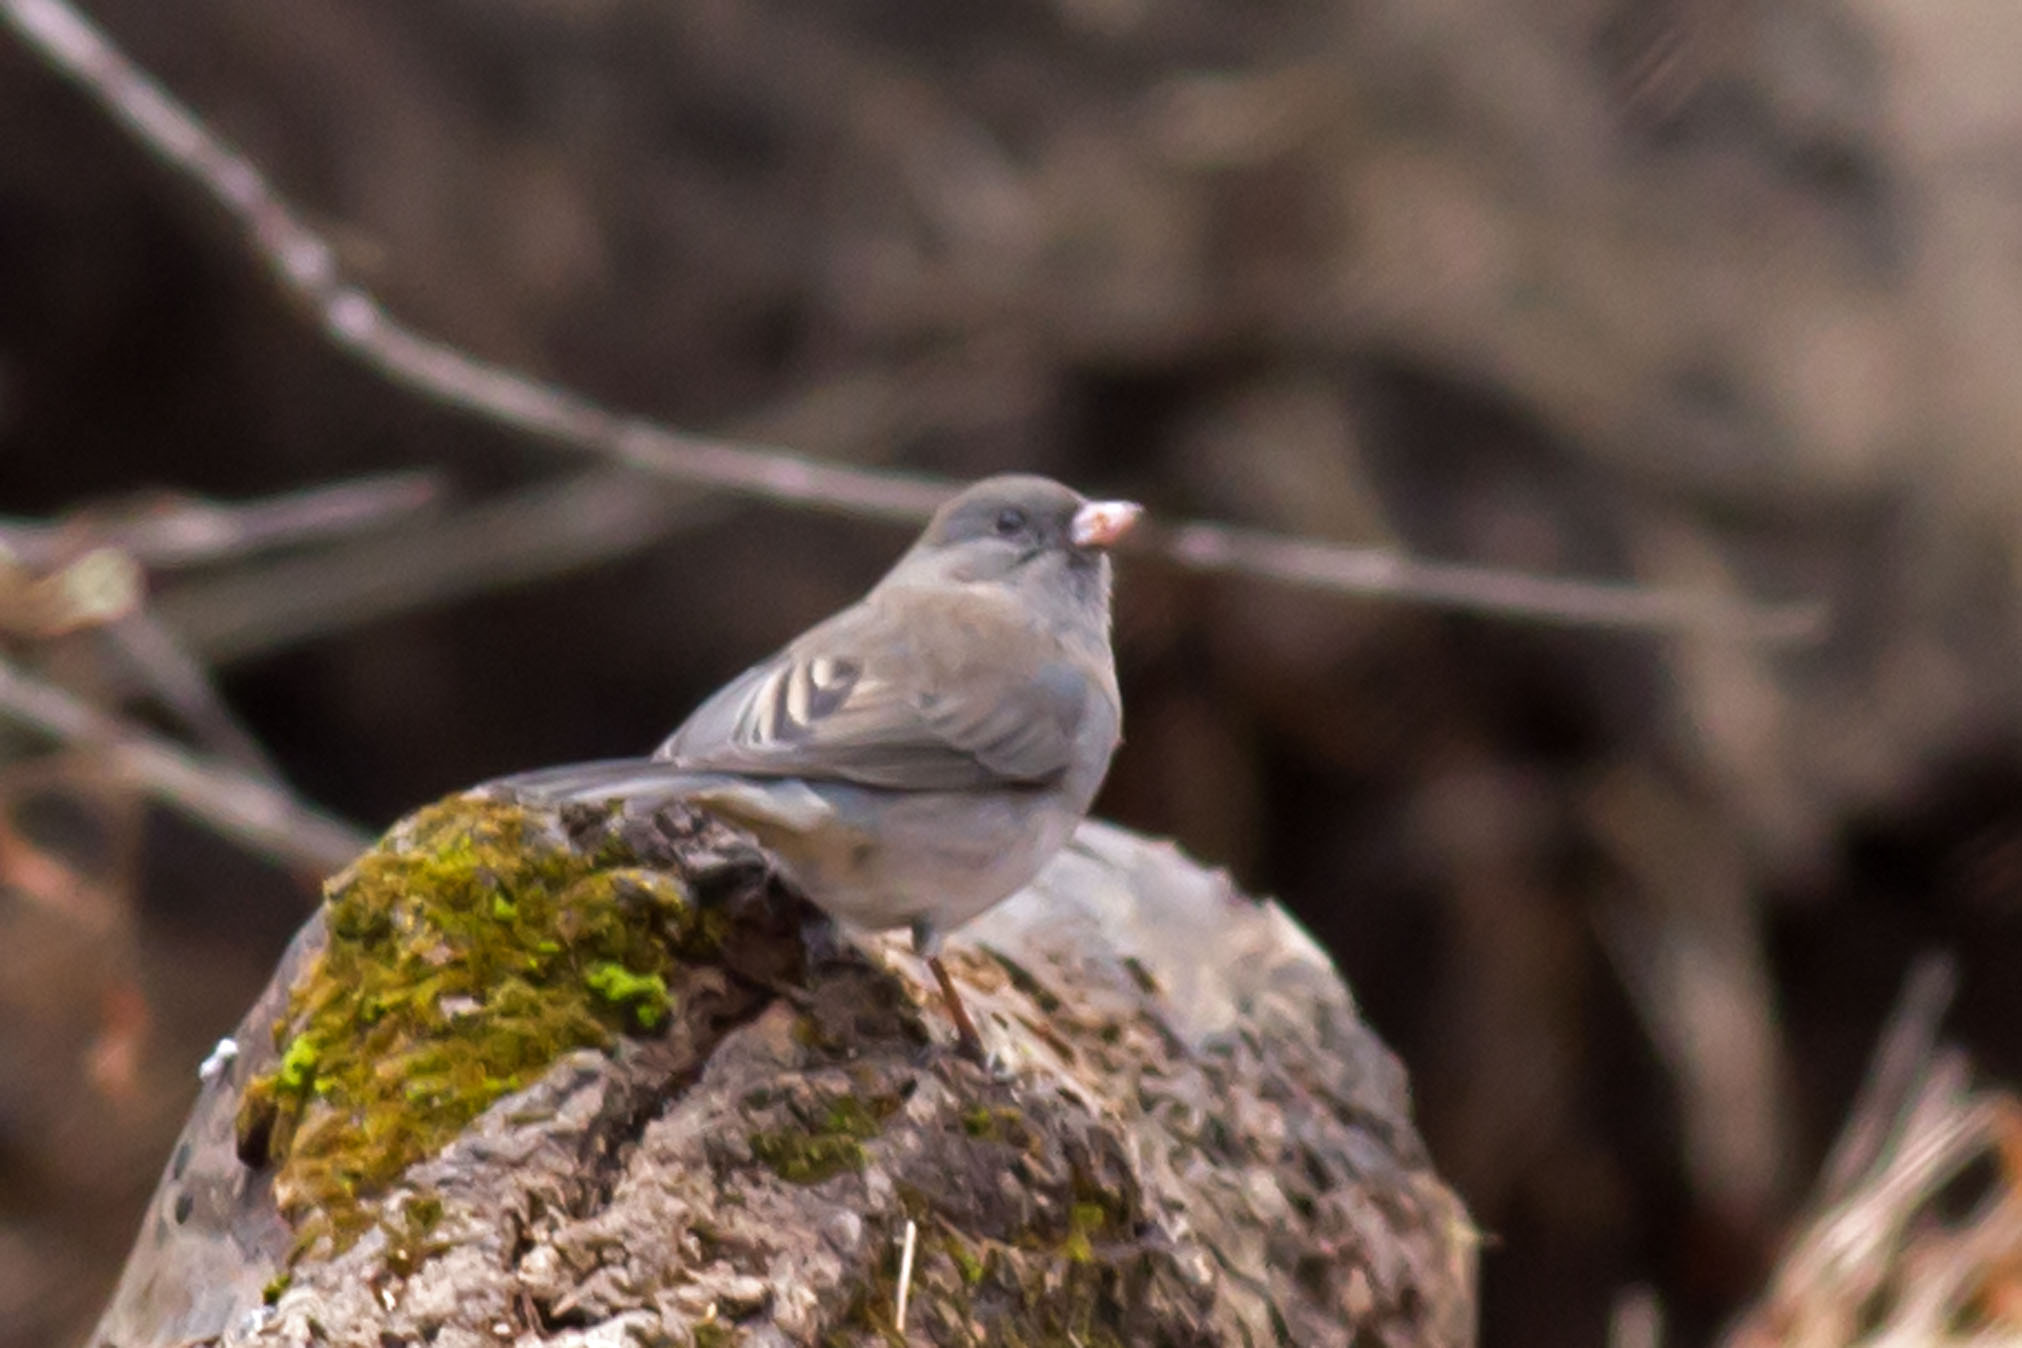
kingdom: Animalia
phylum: Chordata
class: Aves
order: Passeriformes
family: Passerellidae
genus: Junco
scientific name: Junco hyemalis
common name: Dark-eyed junco
